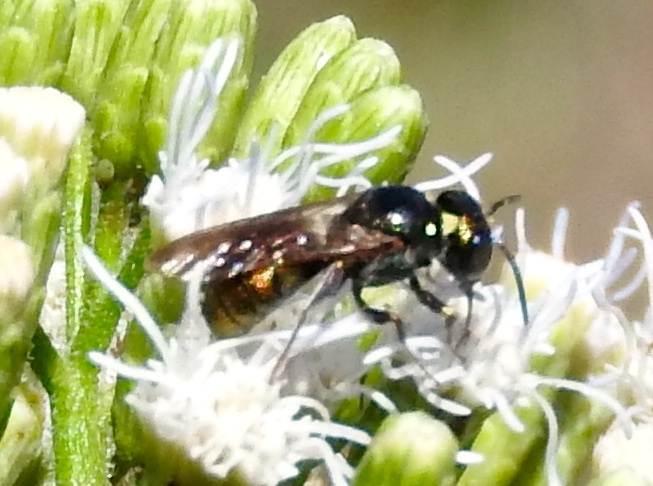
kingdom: Animalia
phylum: Arthropoda
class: Insecta
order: Hymenoptera
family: Apidae
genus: Ceratina
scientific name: Ceratina
